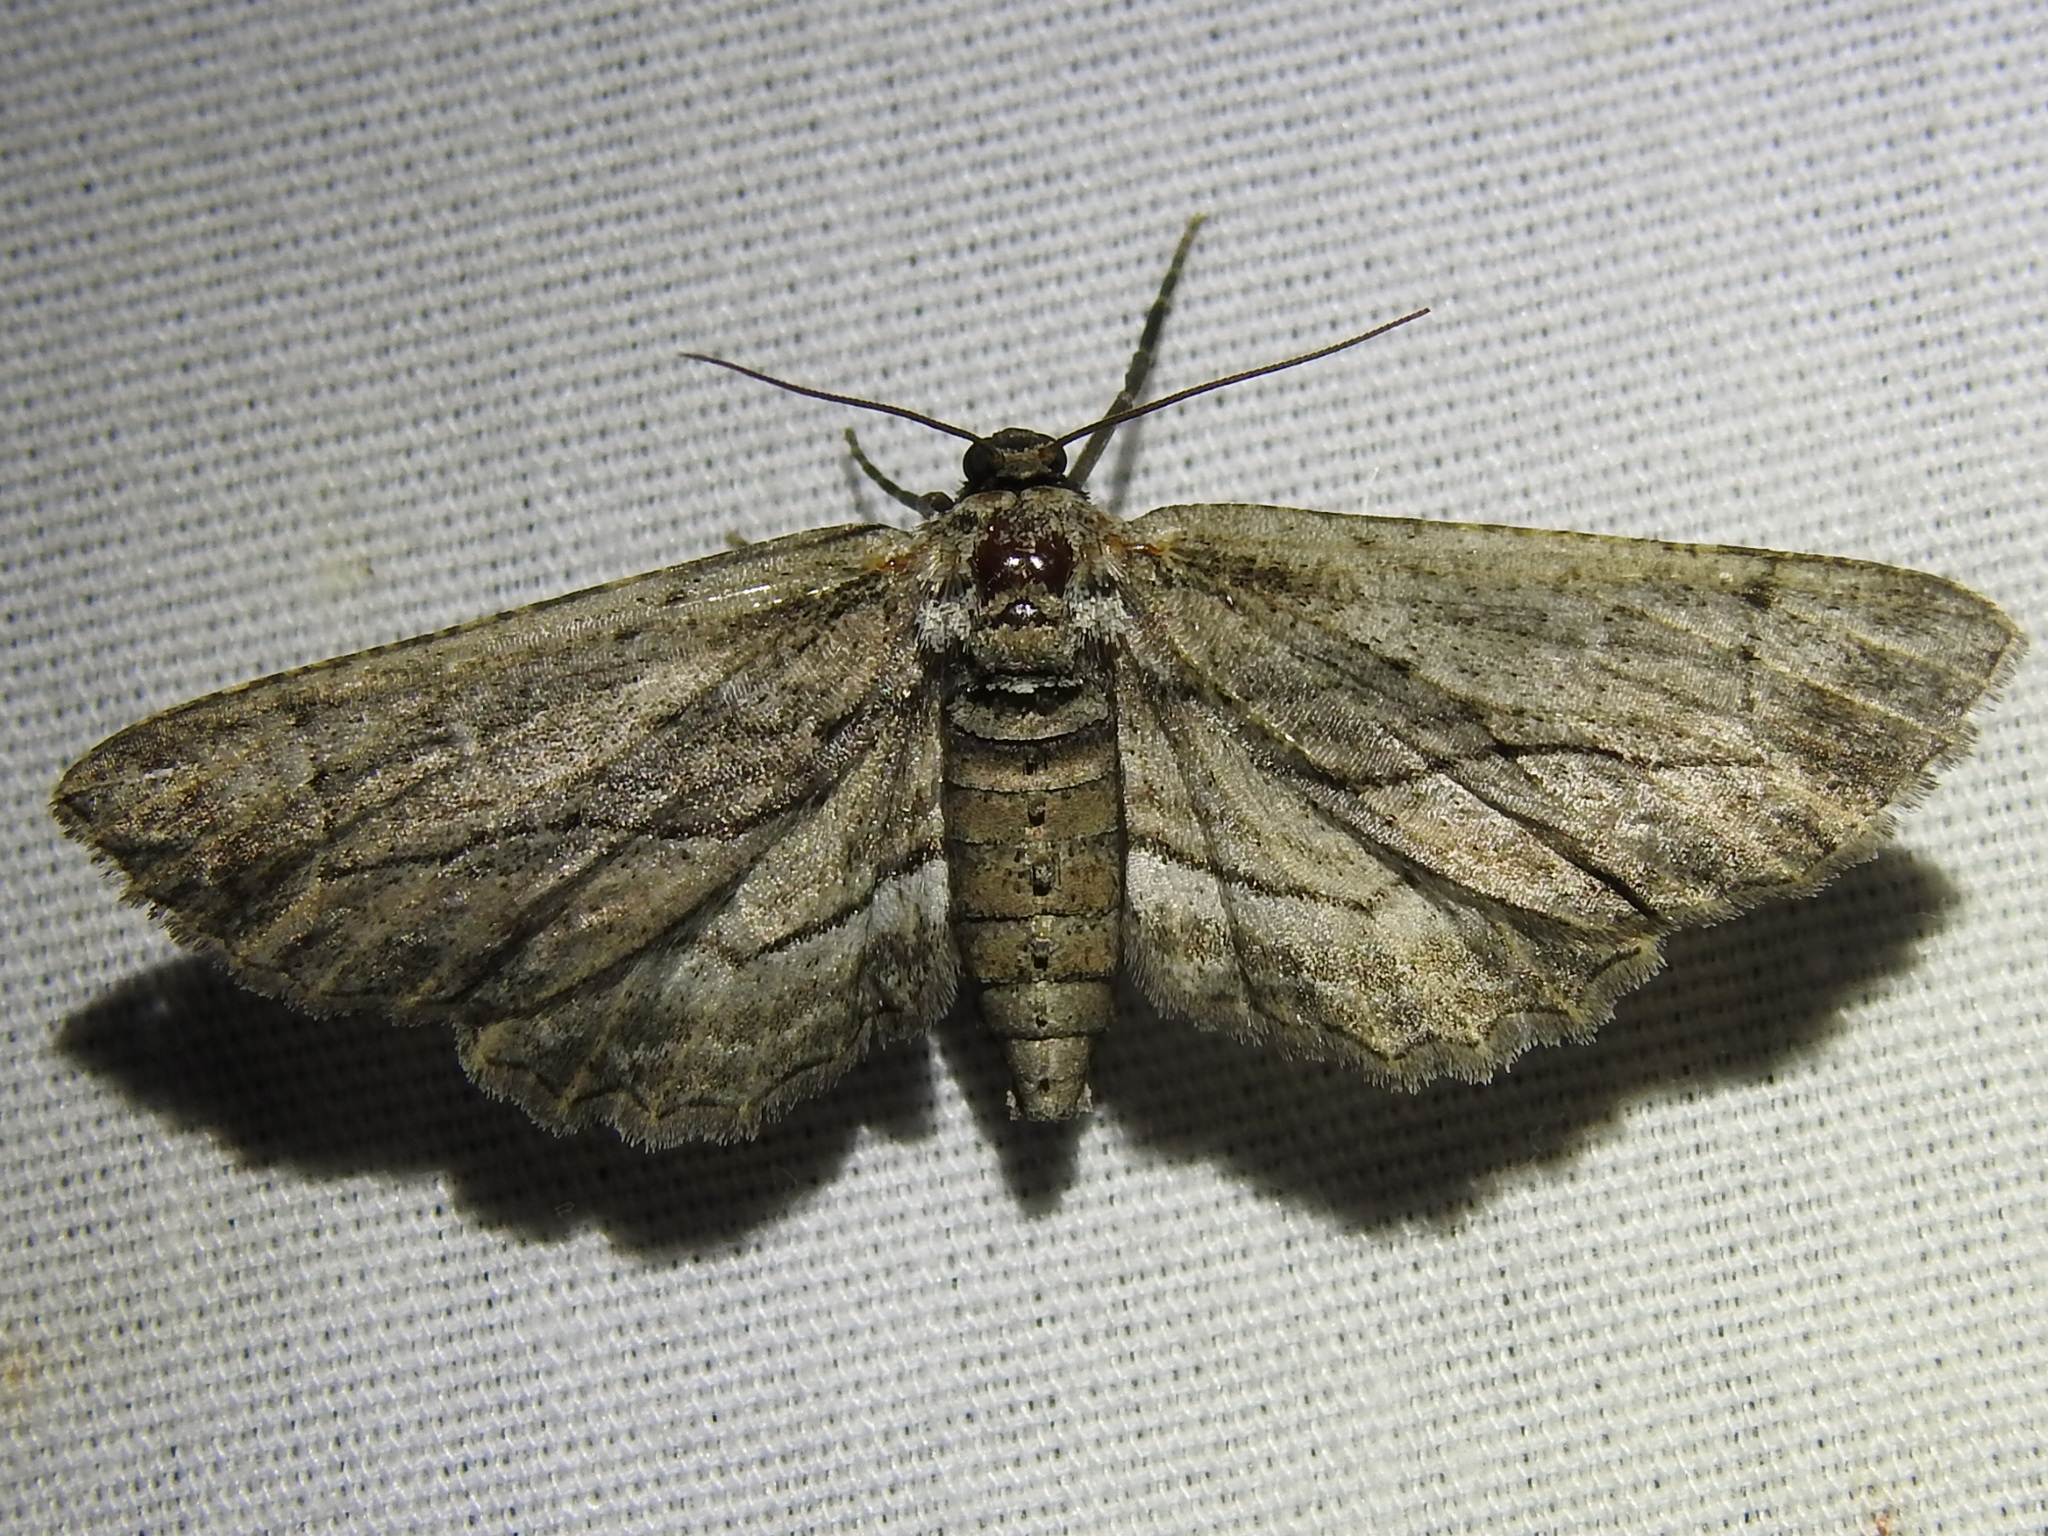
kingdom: Animalia
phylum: Arthropoda
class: Insecta
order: Lepidoptera
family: Geometridae
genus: Glena
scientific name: Glena quinquelinearia
